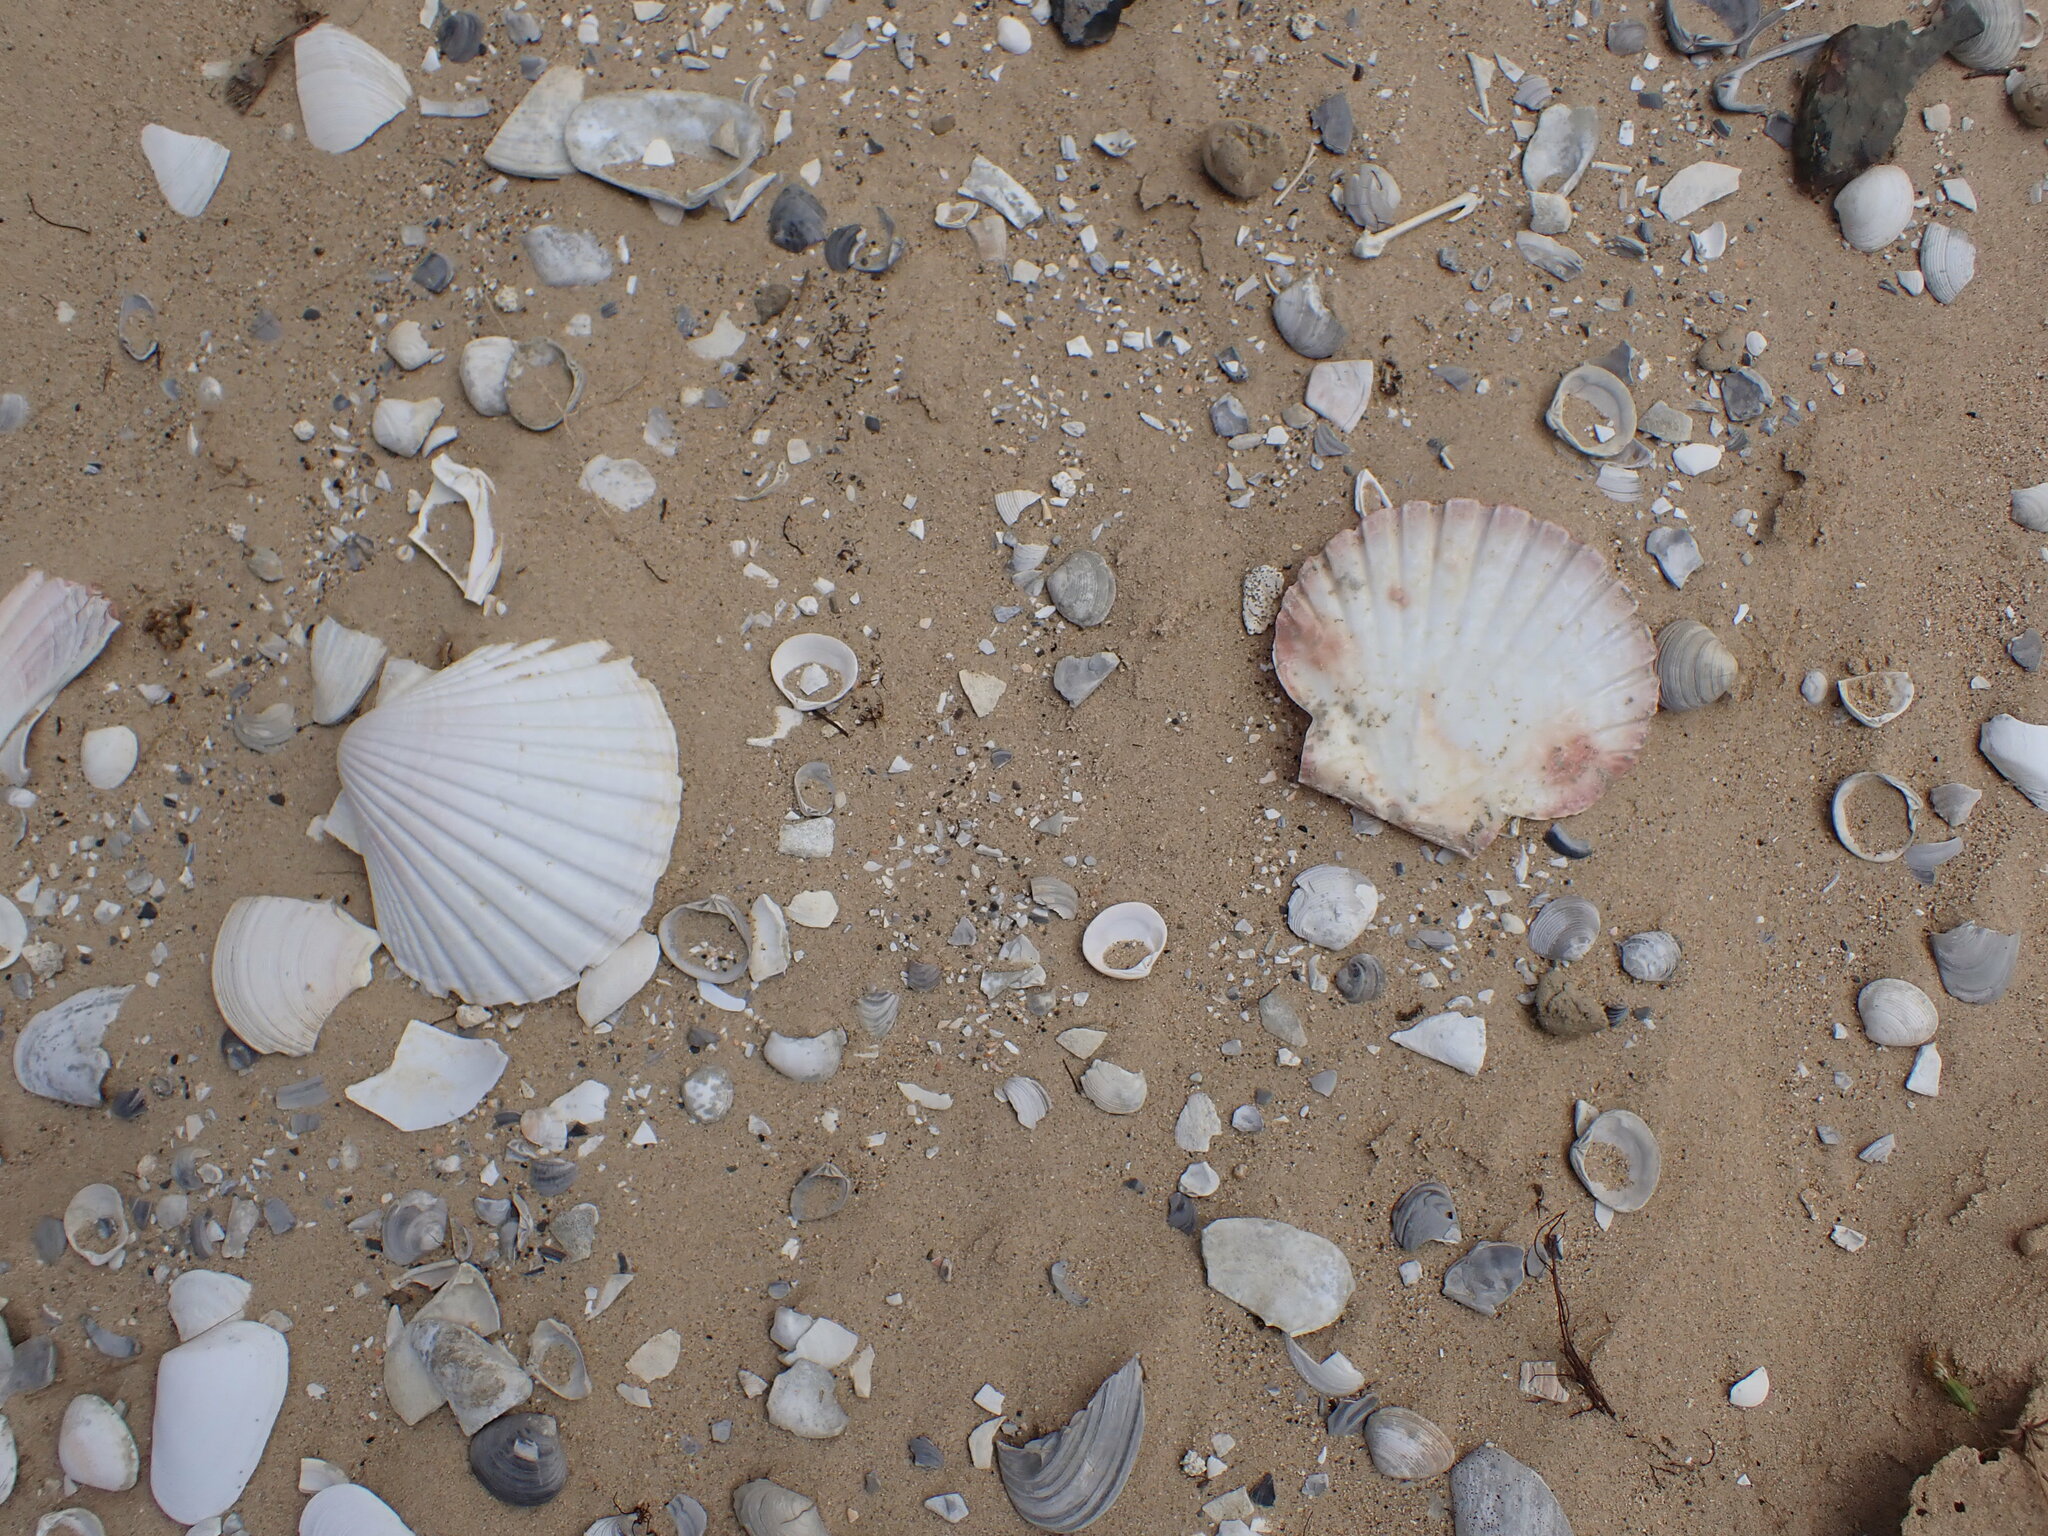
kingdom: Animalia
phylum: Mollusca
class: Bivalvia
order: Pectinida
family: Pectinidae
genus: Pecten
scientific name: Pecten novaezelandiae
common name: New zealand scallop
